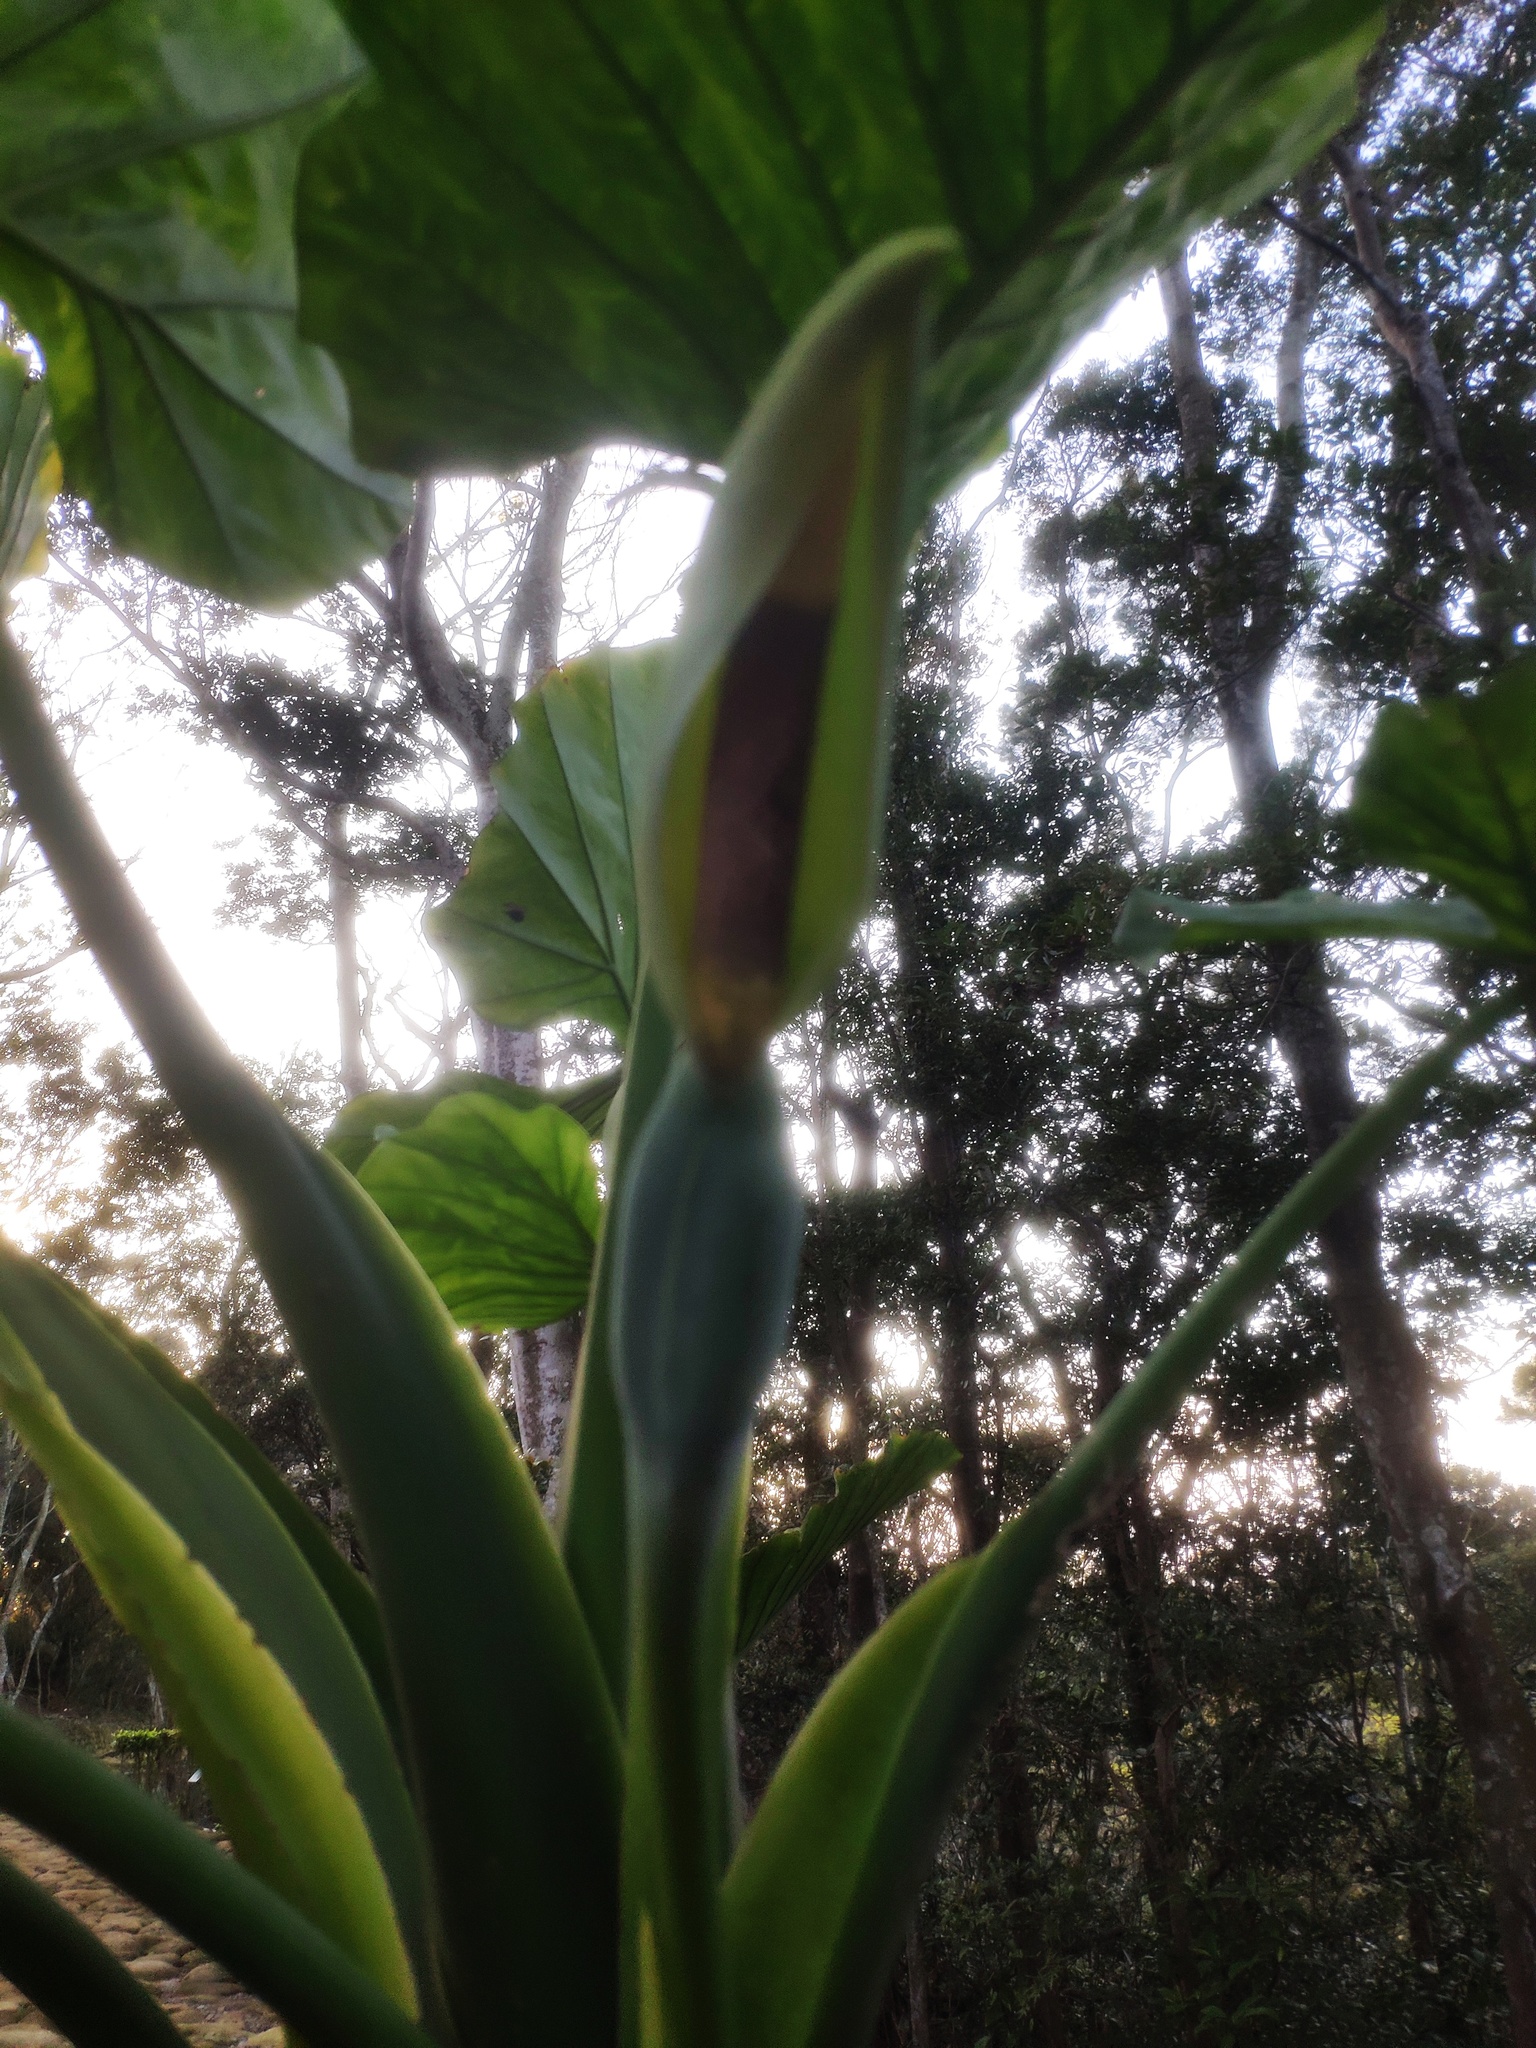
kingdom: Plantae
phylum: Tracheophyta
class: Liliopsida
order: Alismatales
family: Araceae
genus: Alocasia
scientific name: Alocasia odora
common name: Asian taro
